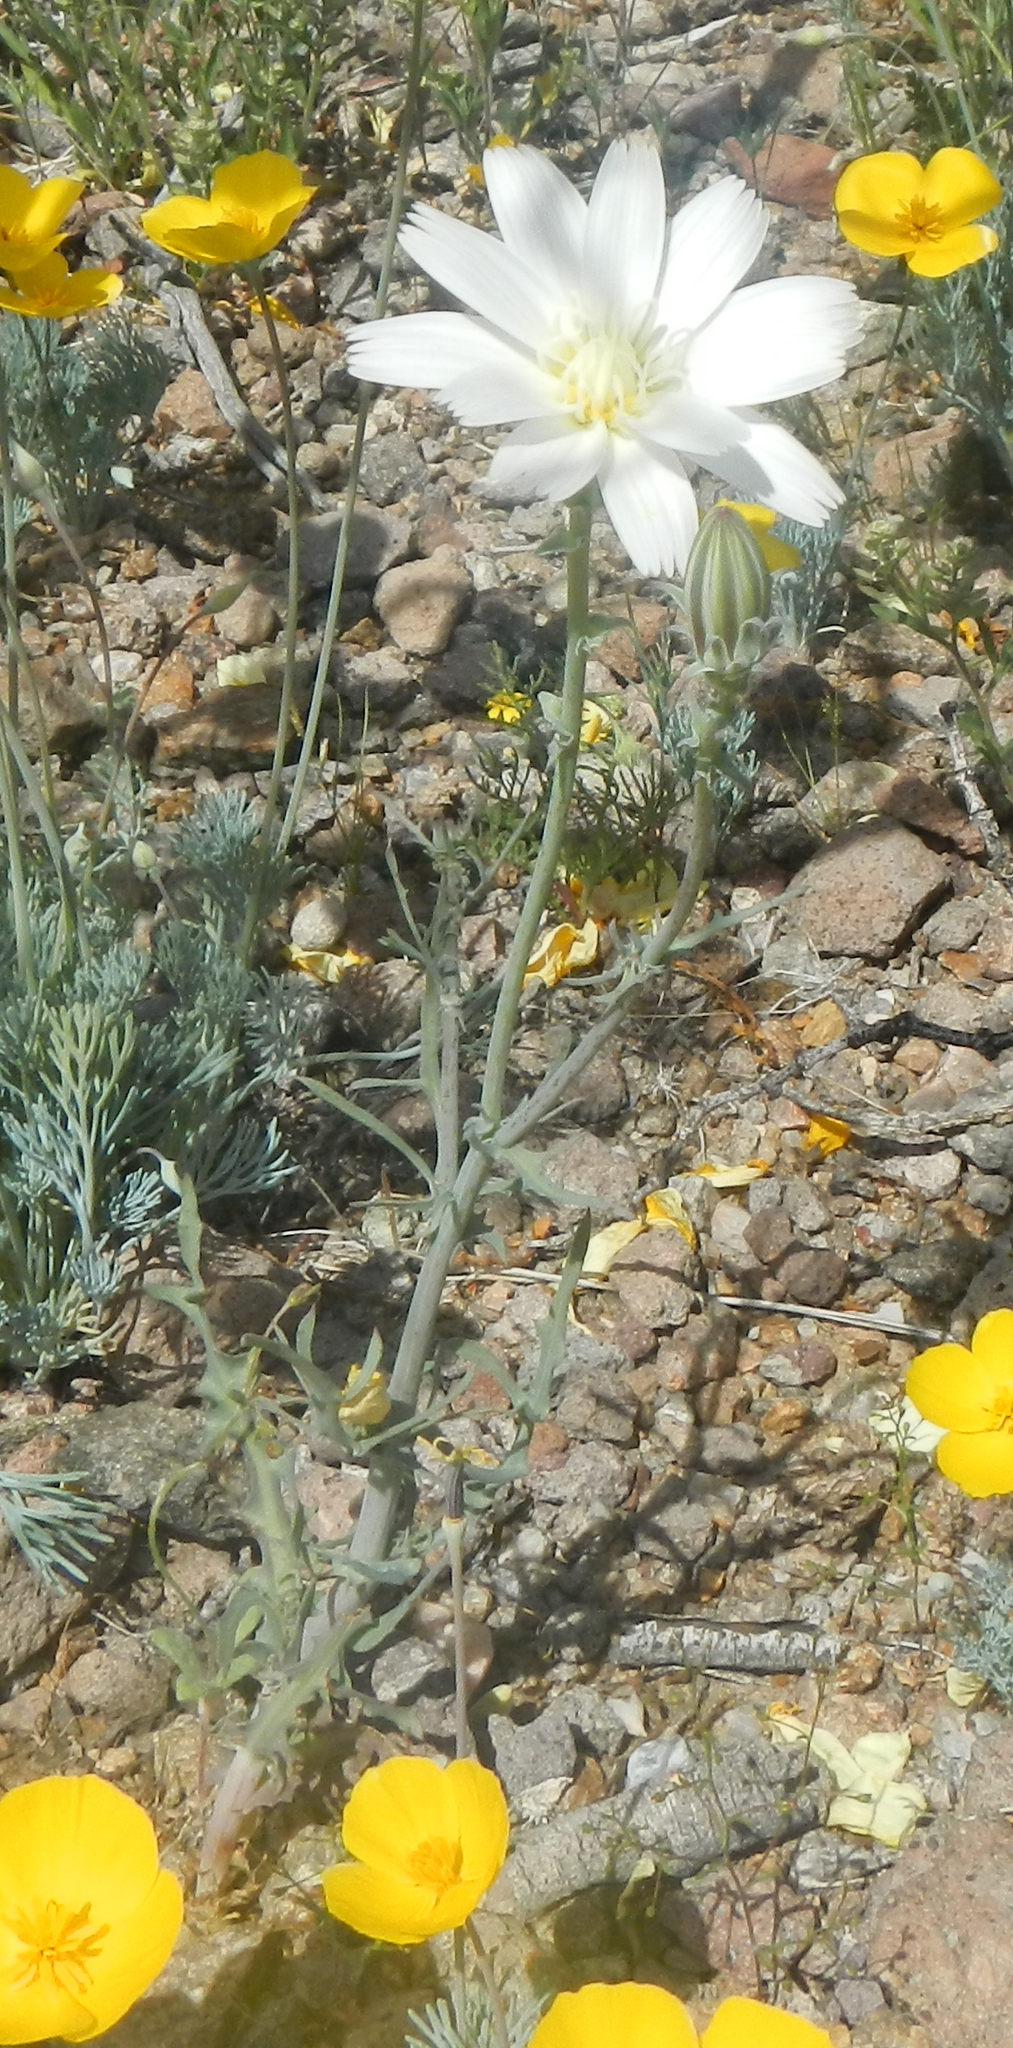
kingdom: Plantae
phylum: Tracheophyta
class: Magnoliopsida
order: Asterales
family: Asteraceae
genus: Rafinesquia
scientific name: Rafinesquia neomexicana
